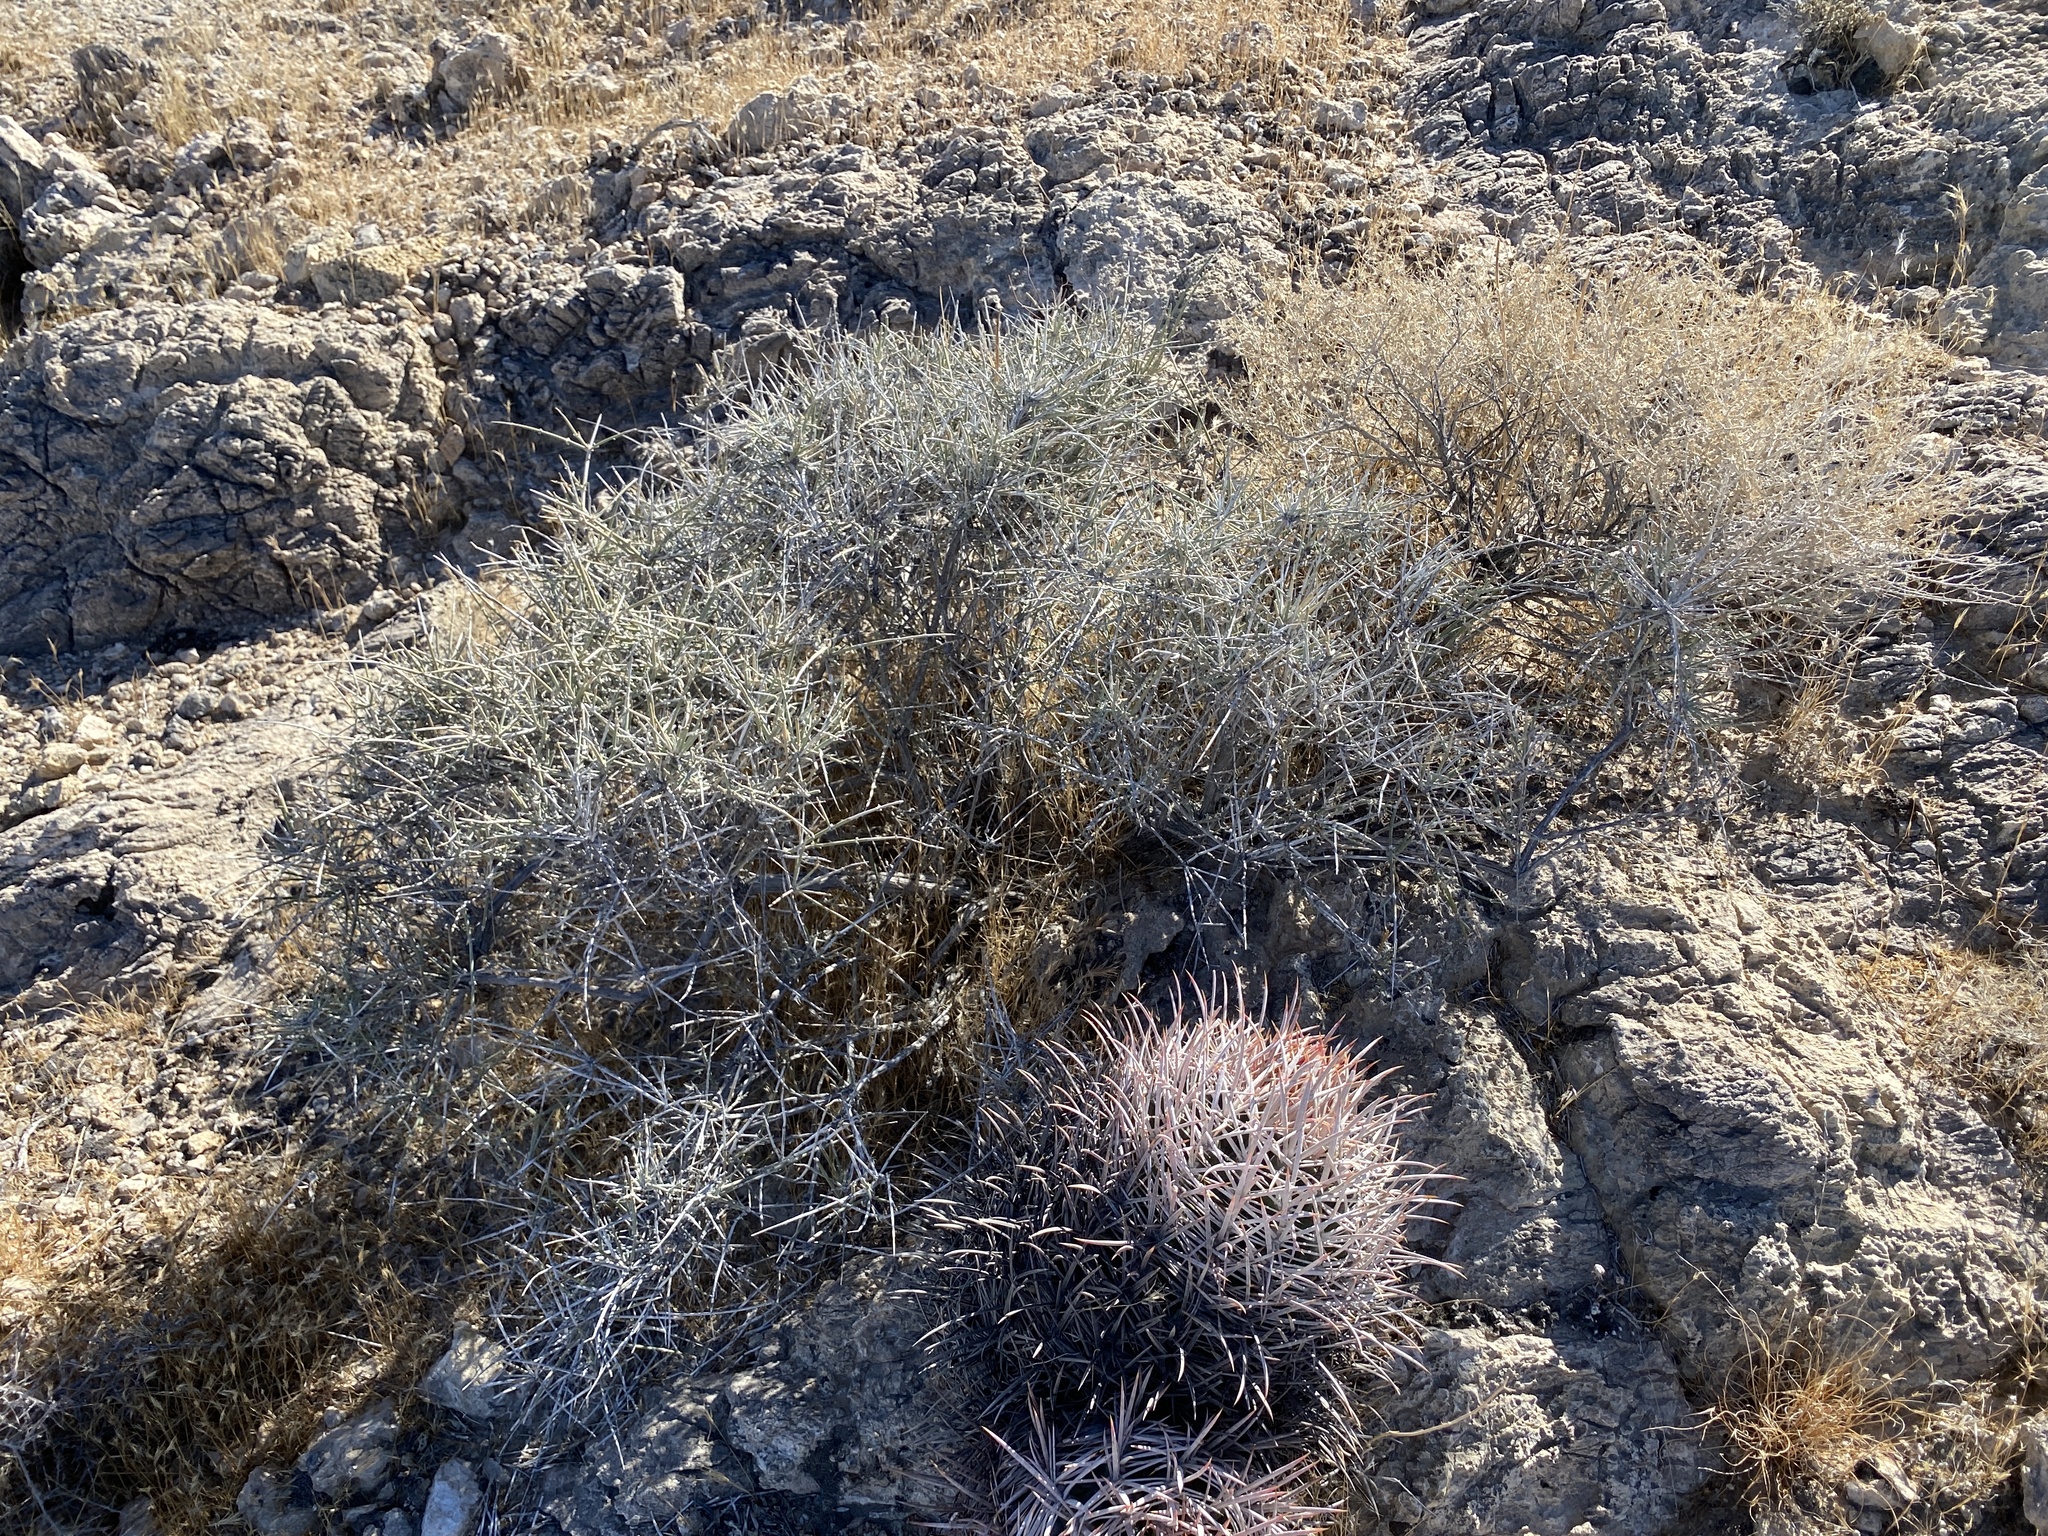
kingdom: Plantae
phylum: Tracheophyta
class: Gnetopsida
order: Ephedrales
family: Ephedraceae
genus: Ephedra
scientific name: Ephedra nevadensis
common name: Gray ephedra
